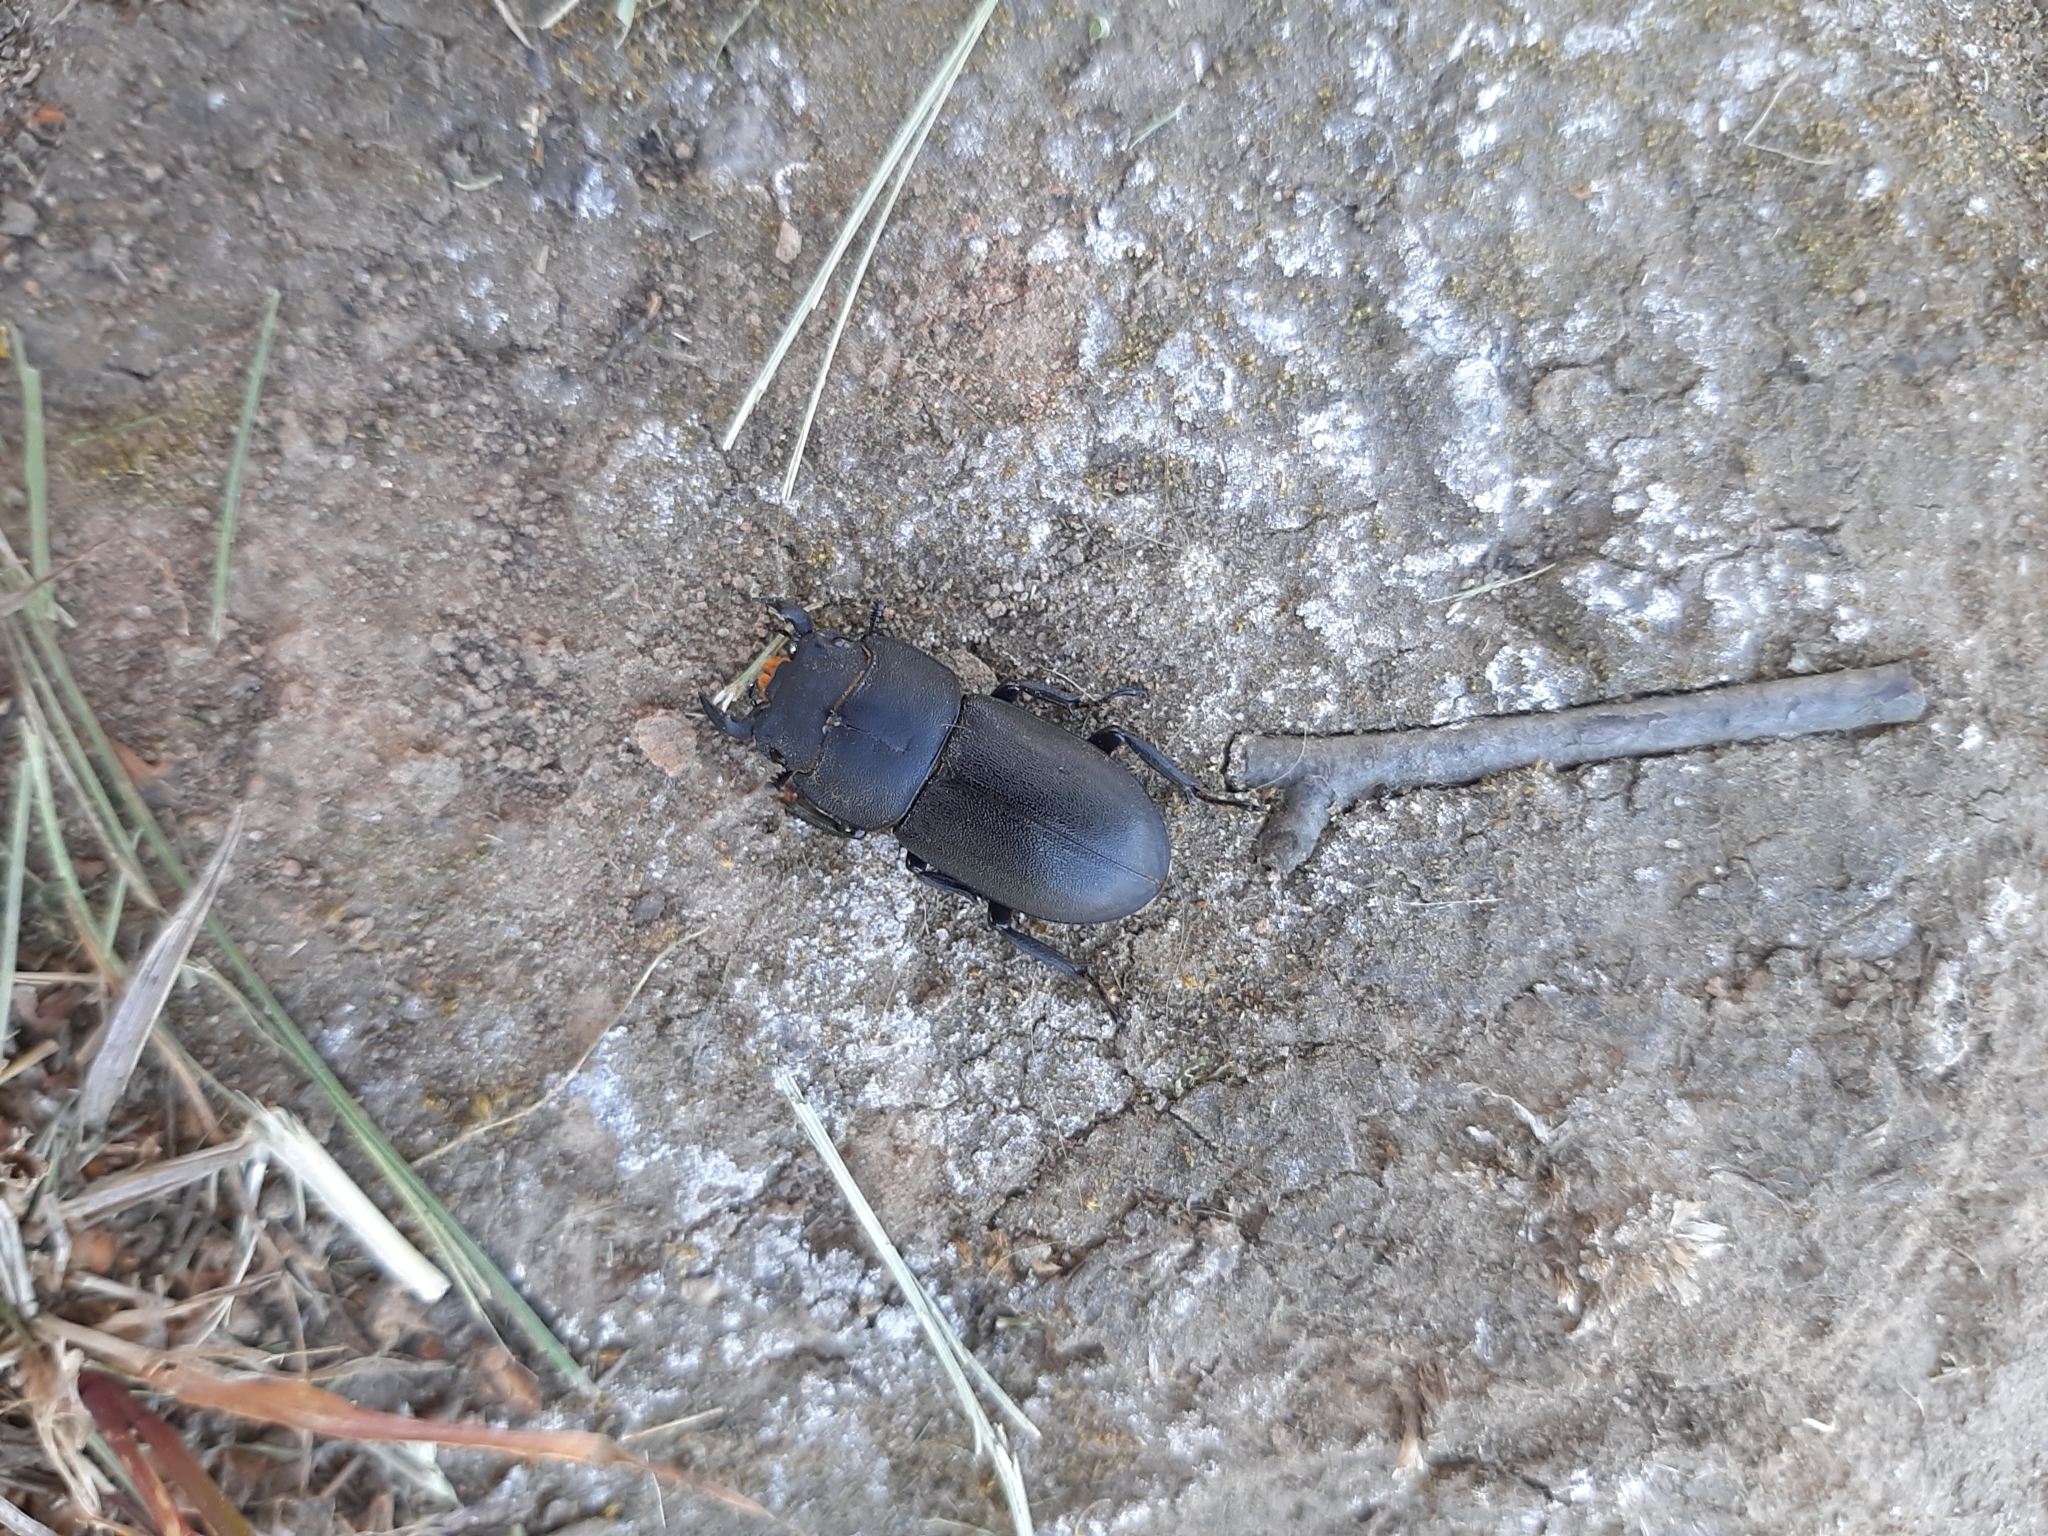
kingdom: Animalia
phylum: Arthropoda
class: Insecta
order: Coleoptera
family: Lucanidae
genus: Dorcus
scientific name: Dorcus parallelipipedus
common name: Lesser stag beetle
